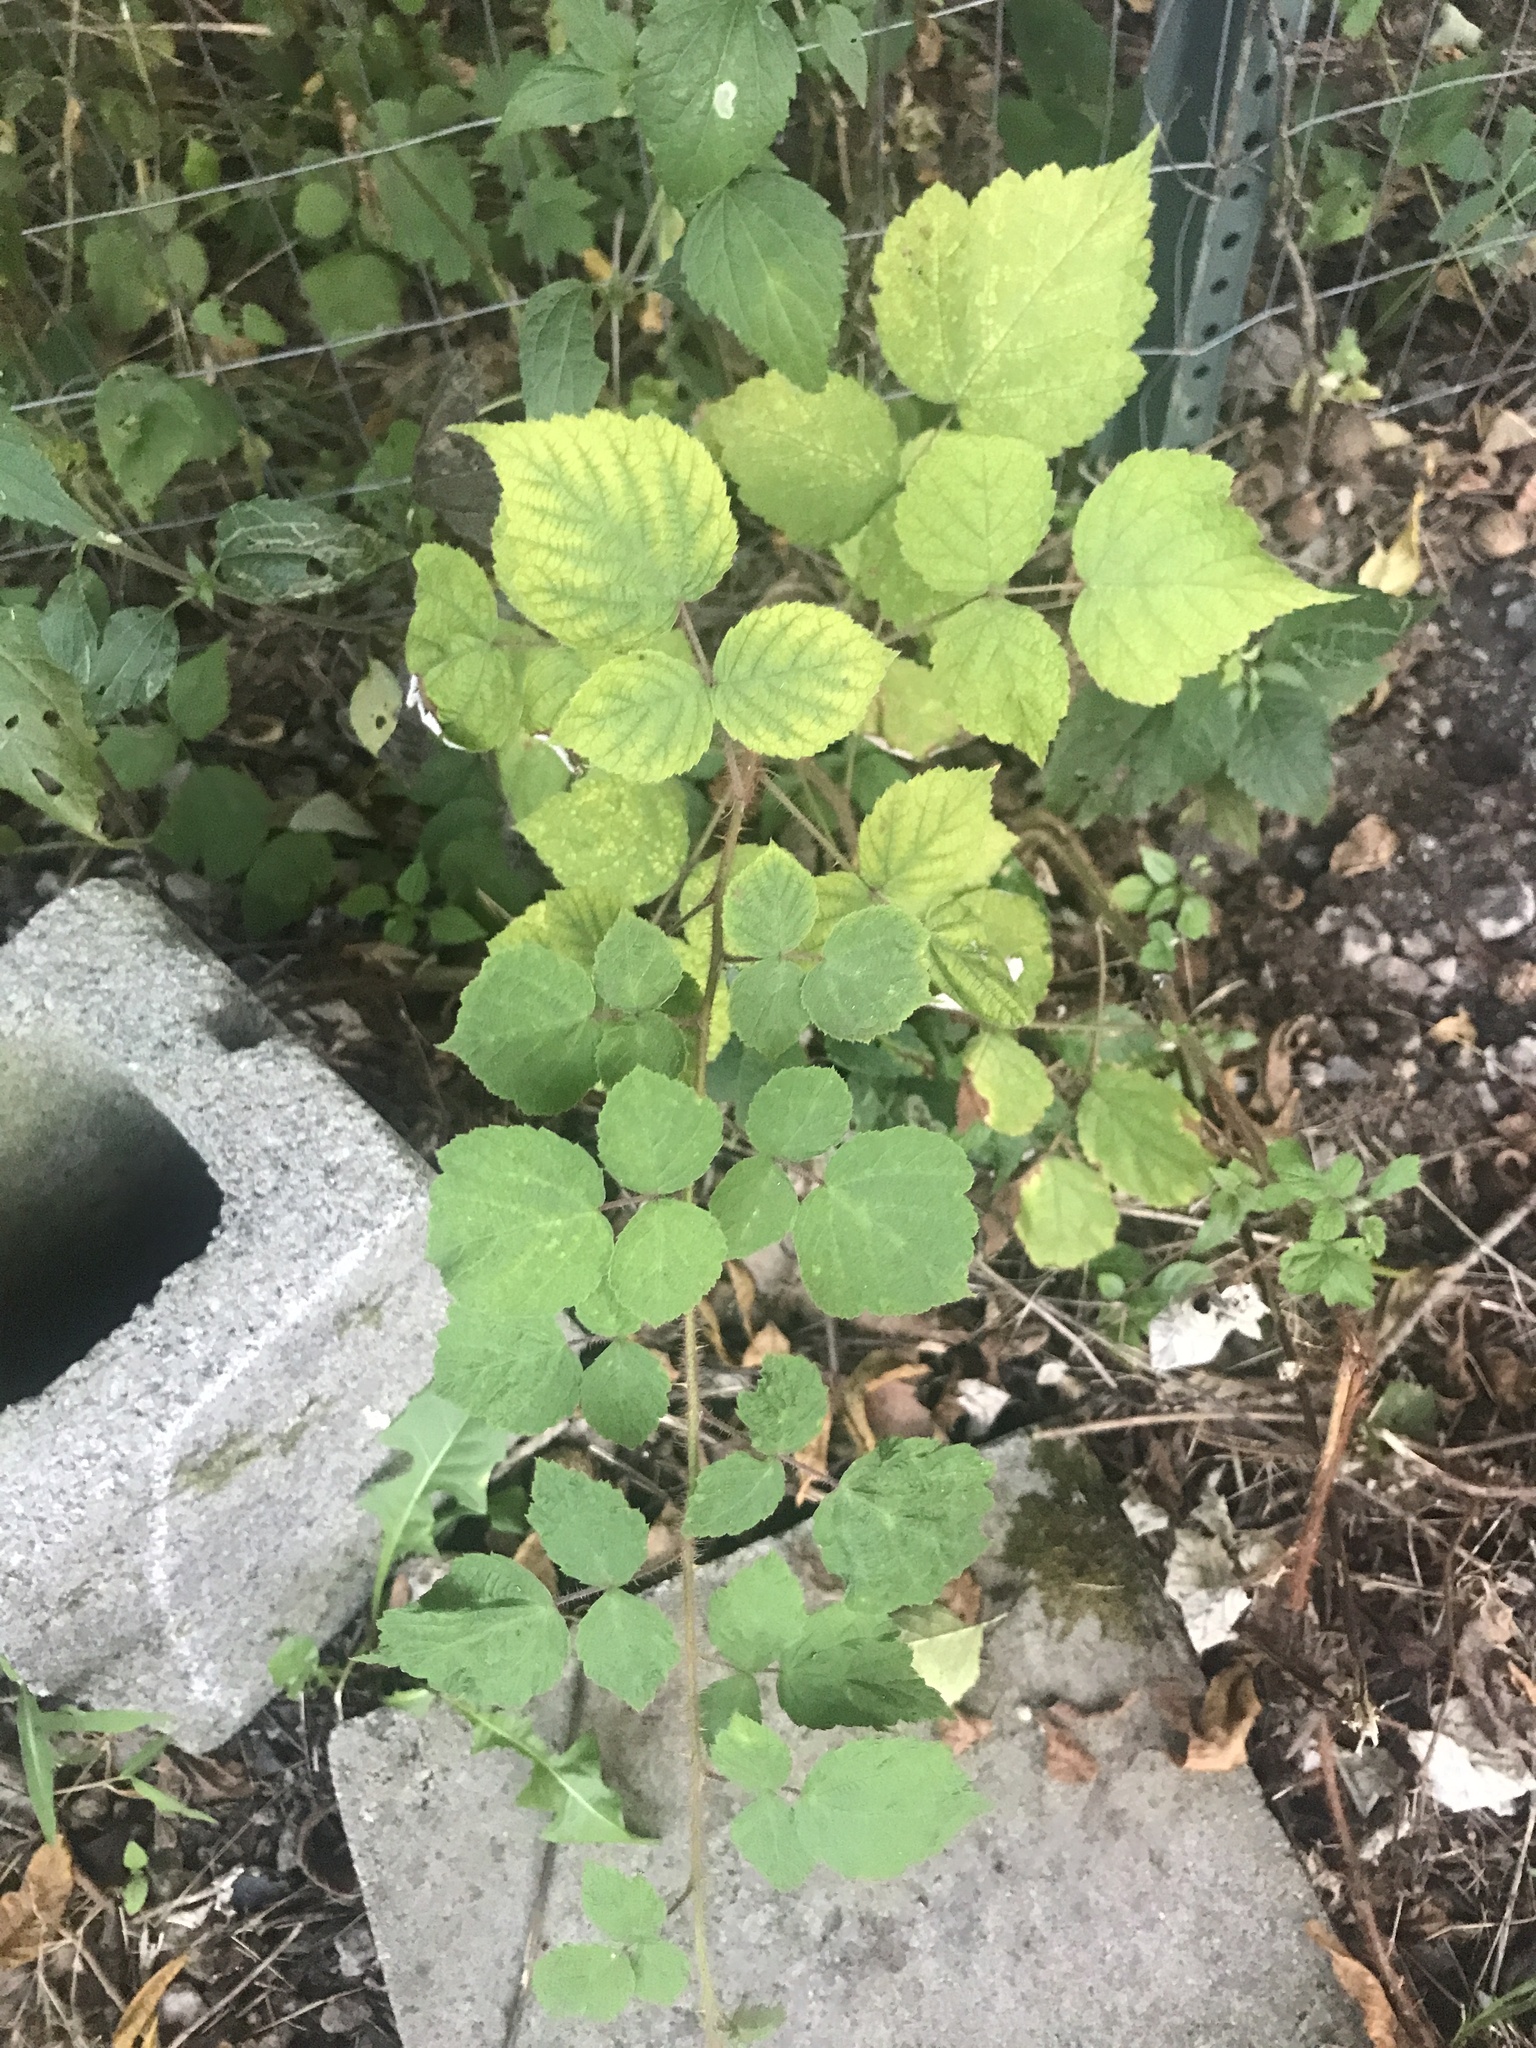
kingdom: Plantae
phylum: Tracheophyta
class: Magnoliopsida
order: Rosales
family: Rosaceae
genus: Rubus
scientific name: Rubus phoenicolasius
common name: Japanese wineberry
